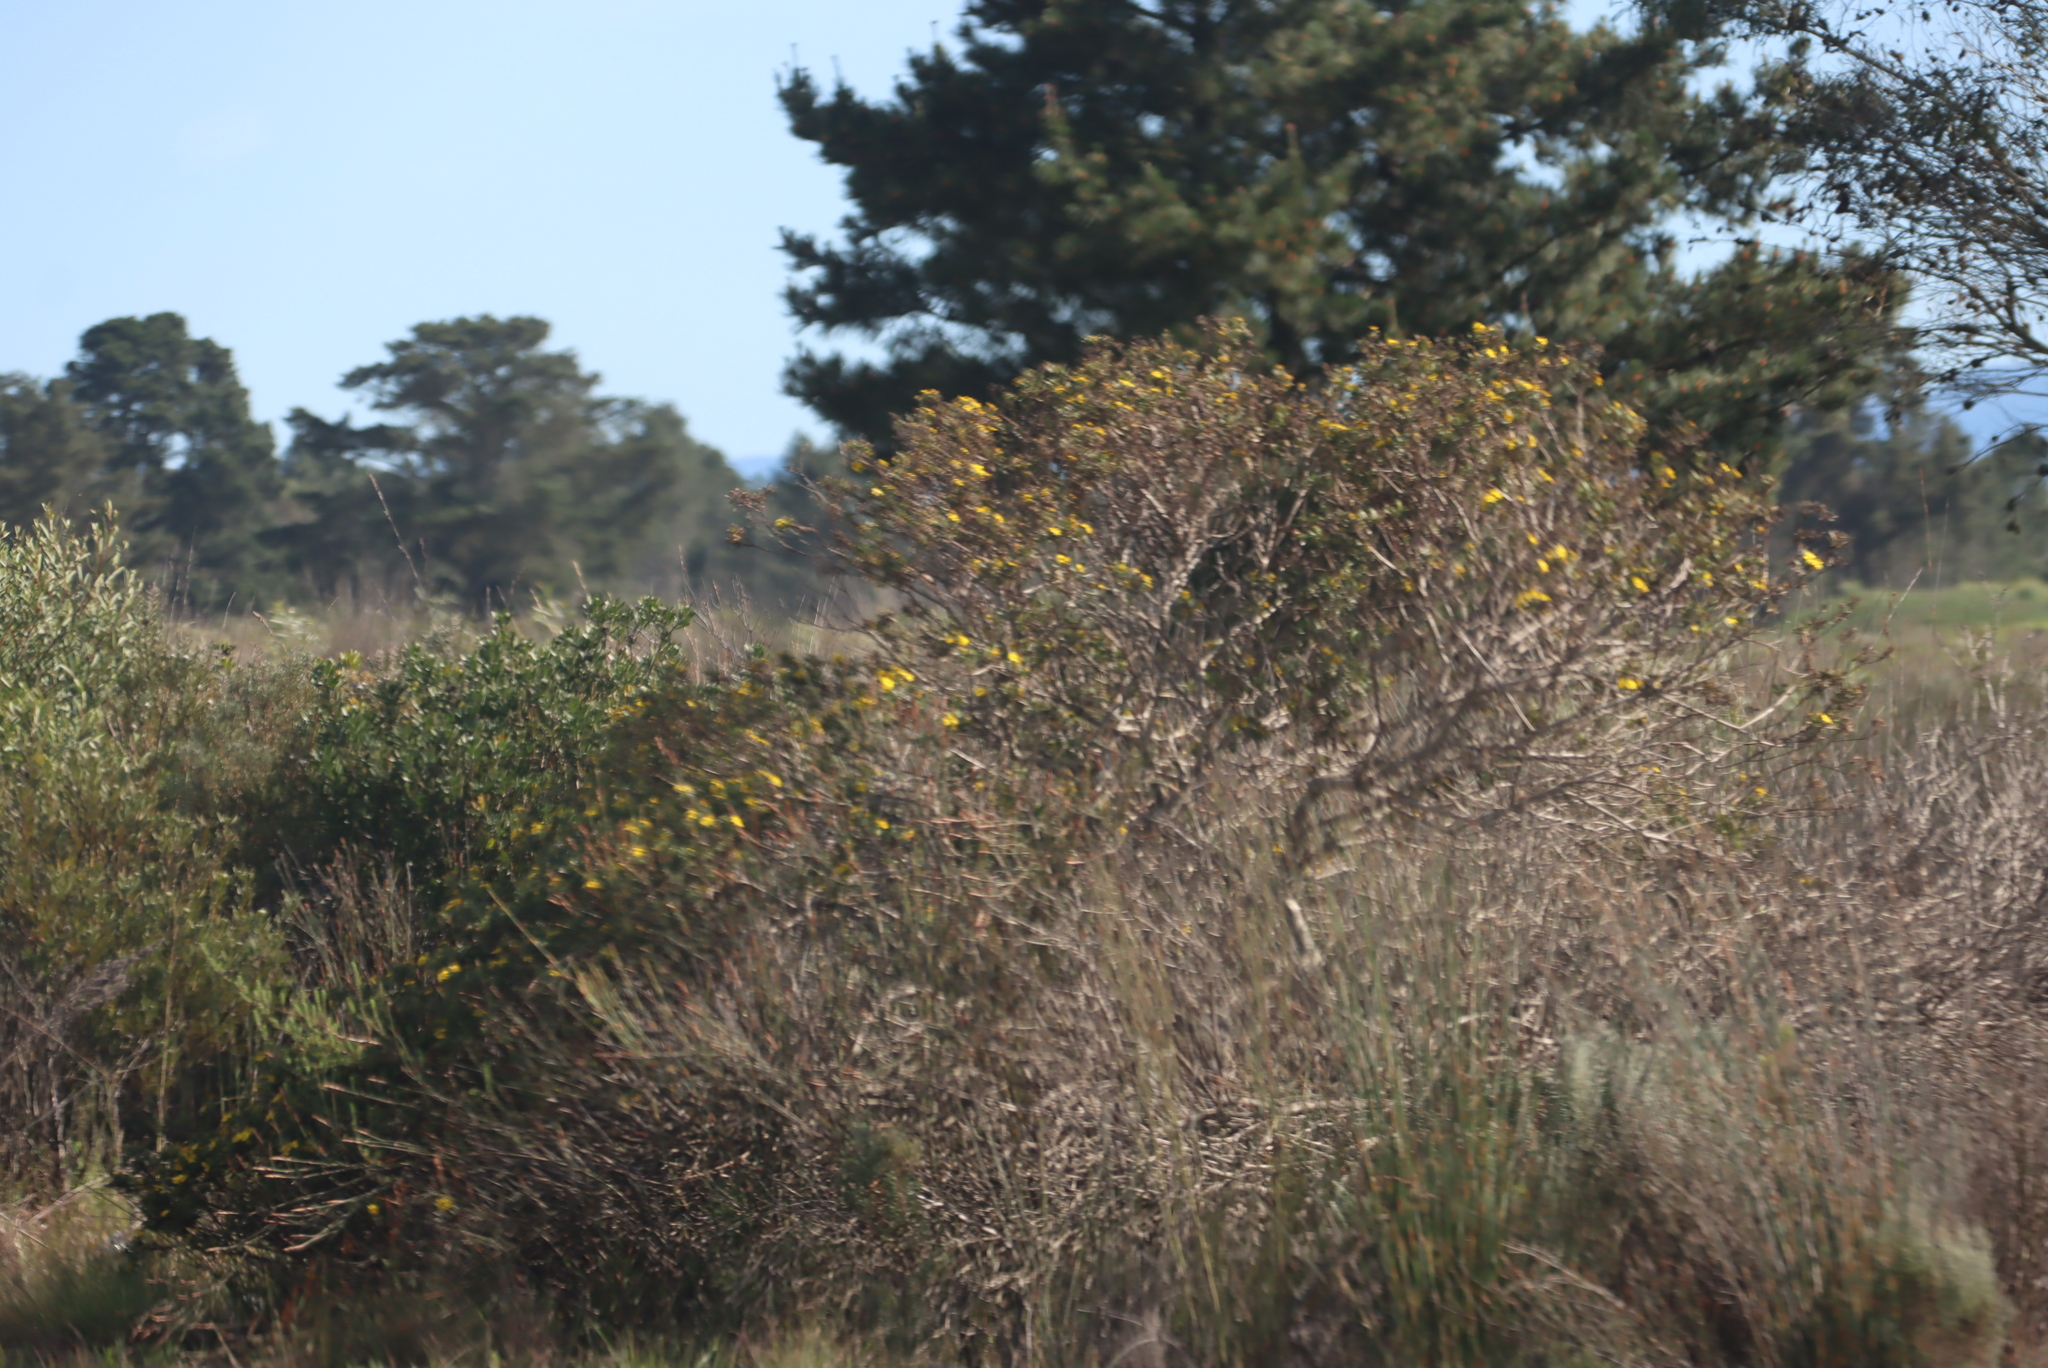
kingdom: Plantae
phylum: Tracheophyta
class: Magnoliopsida
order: Asterales
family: Asteraceae
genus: Osteospermum
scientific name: Osteospermum moniliferum
